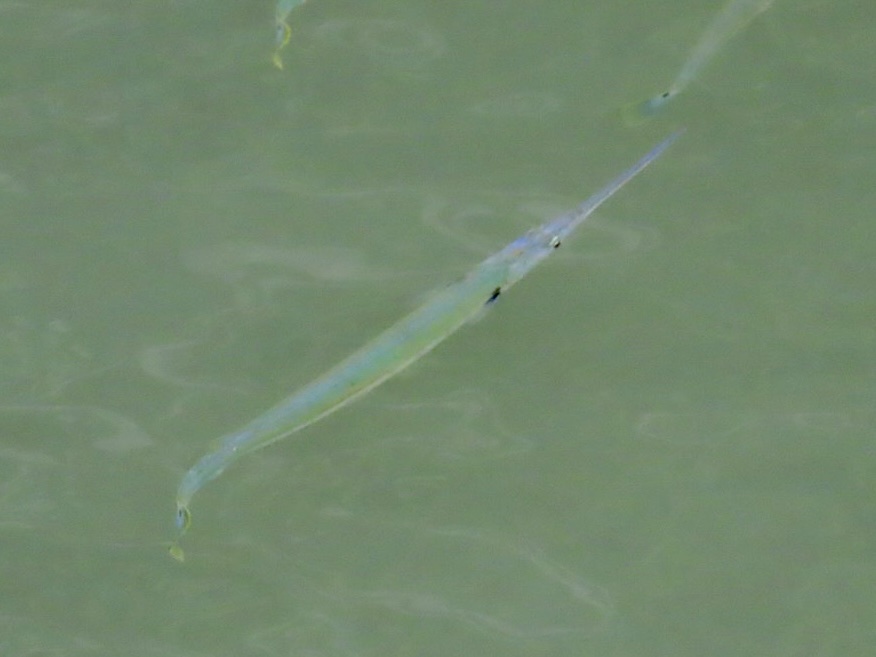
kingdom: Animalia
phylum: Chordata
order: Beloniformes
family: Belonidae
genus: Strongylura
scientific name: Strongylura strongylura
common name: Spottail needlefish
